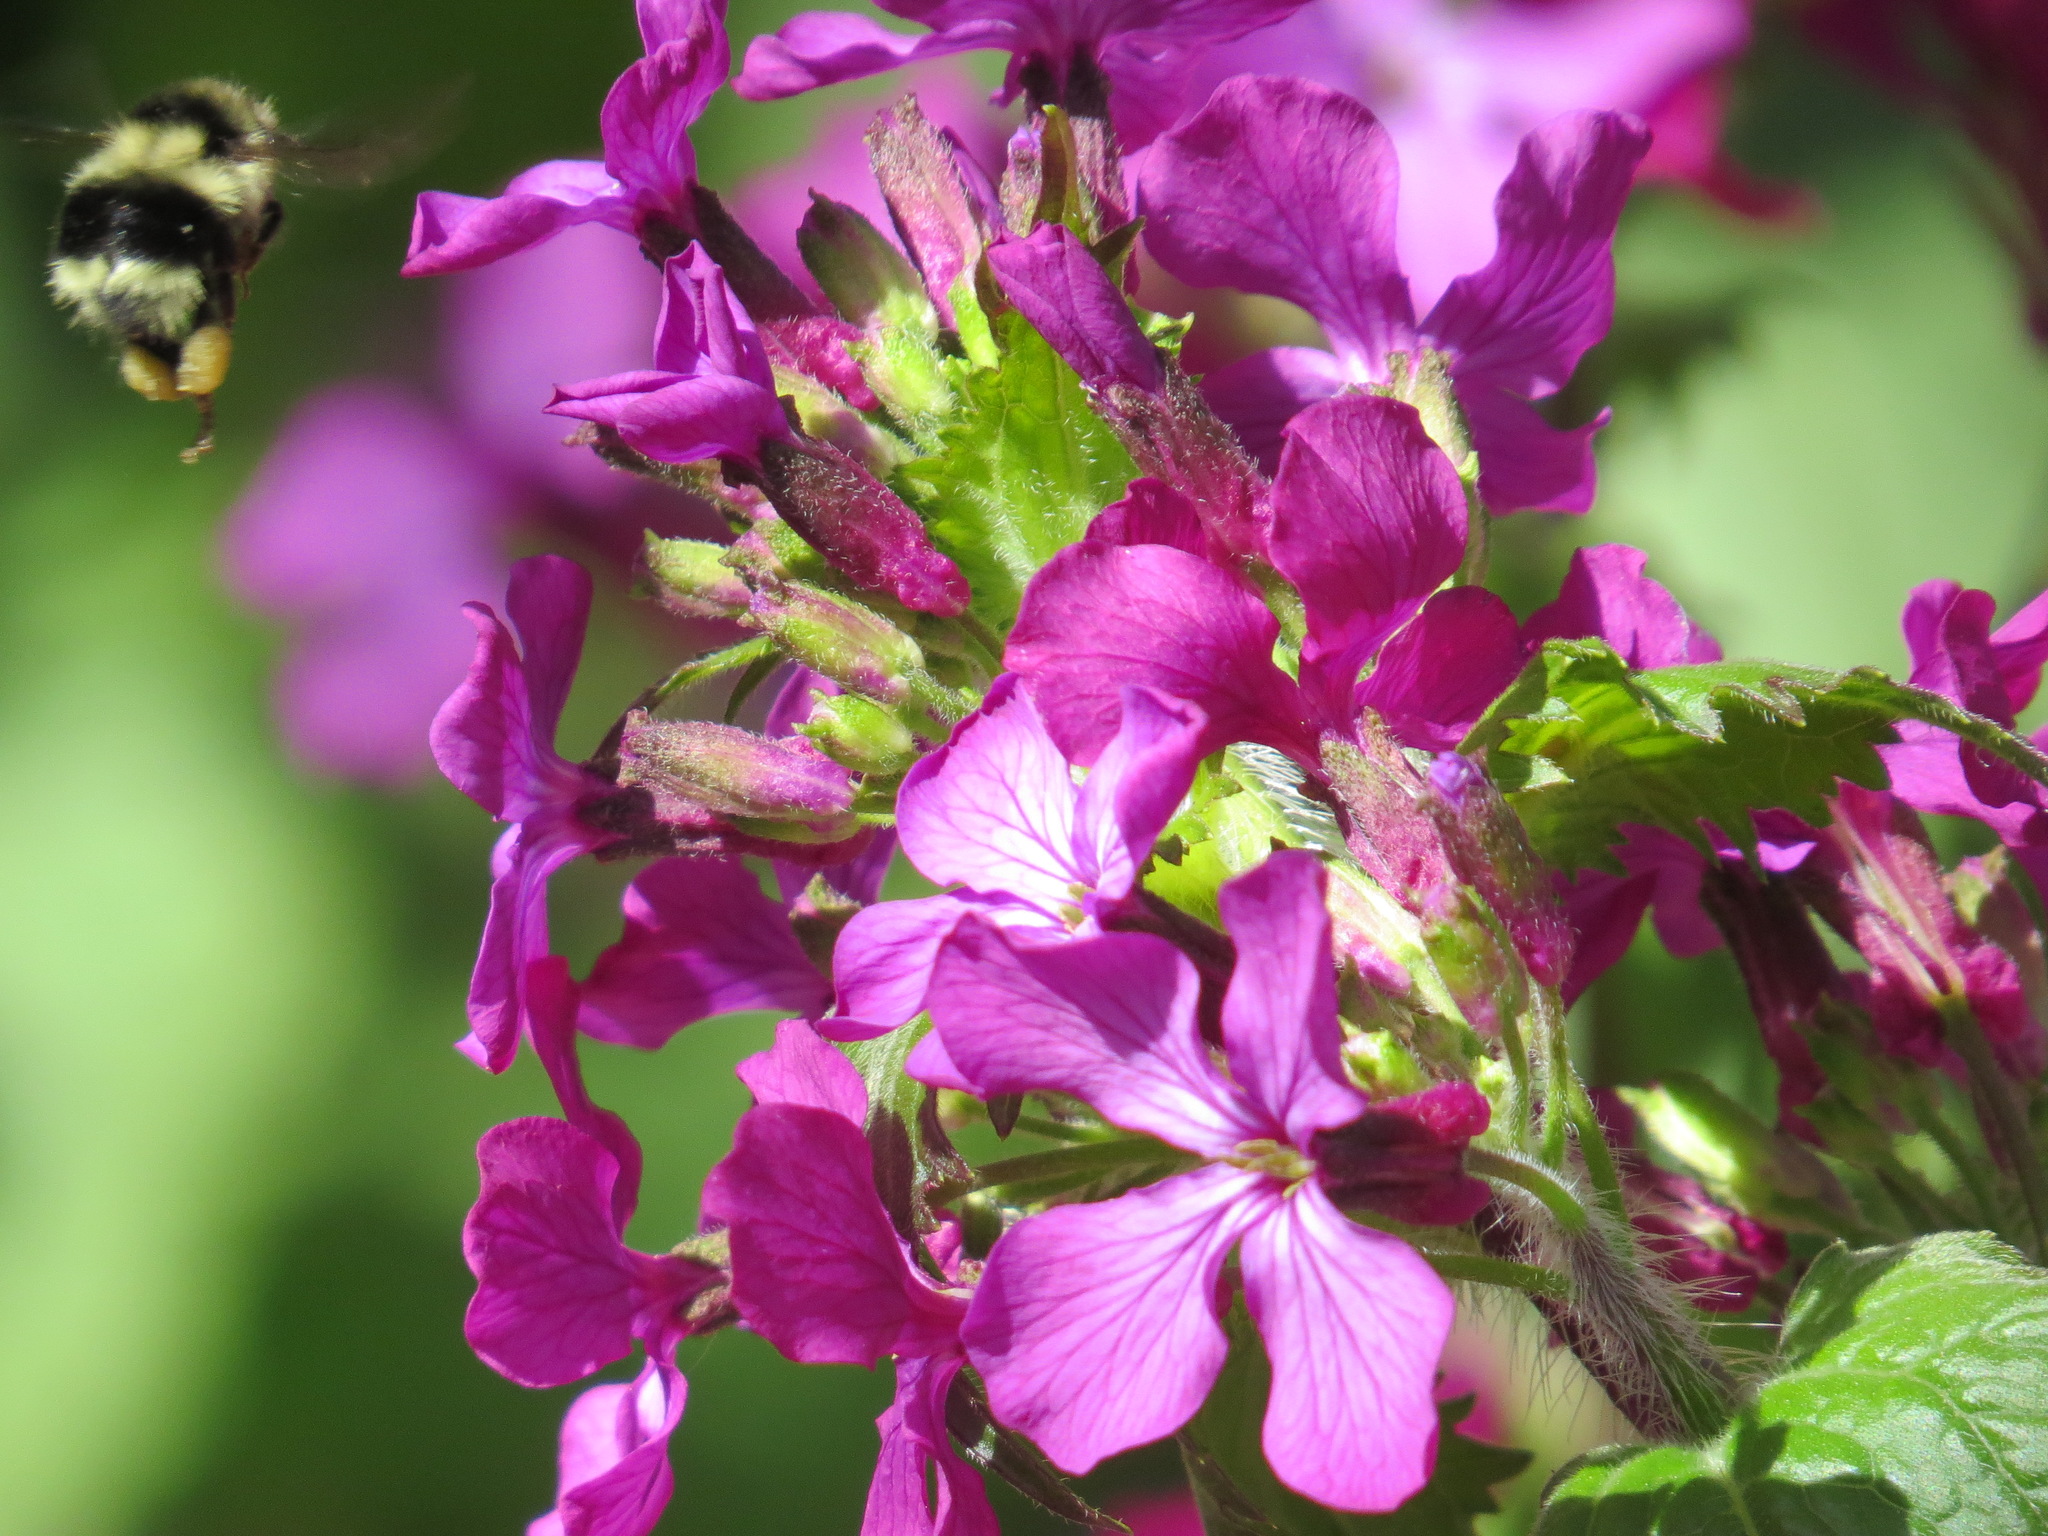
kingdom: Animalia
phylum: Arthropoda
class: Insecta
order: Hymenoptera
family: Apidae
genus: Bombus
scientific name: Bombus melanopygus
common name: Black tail bumble bee
